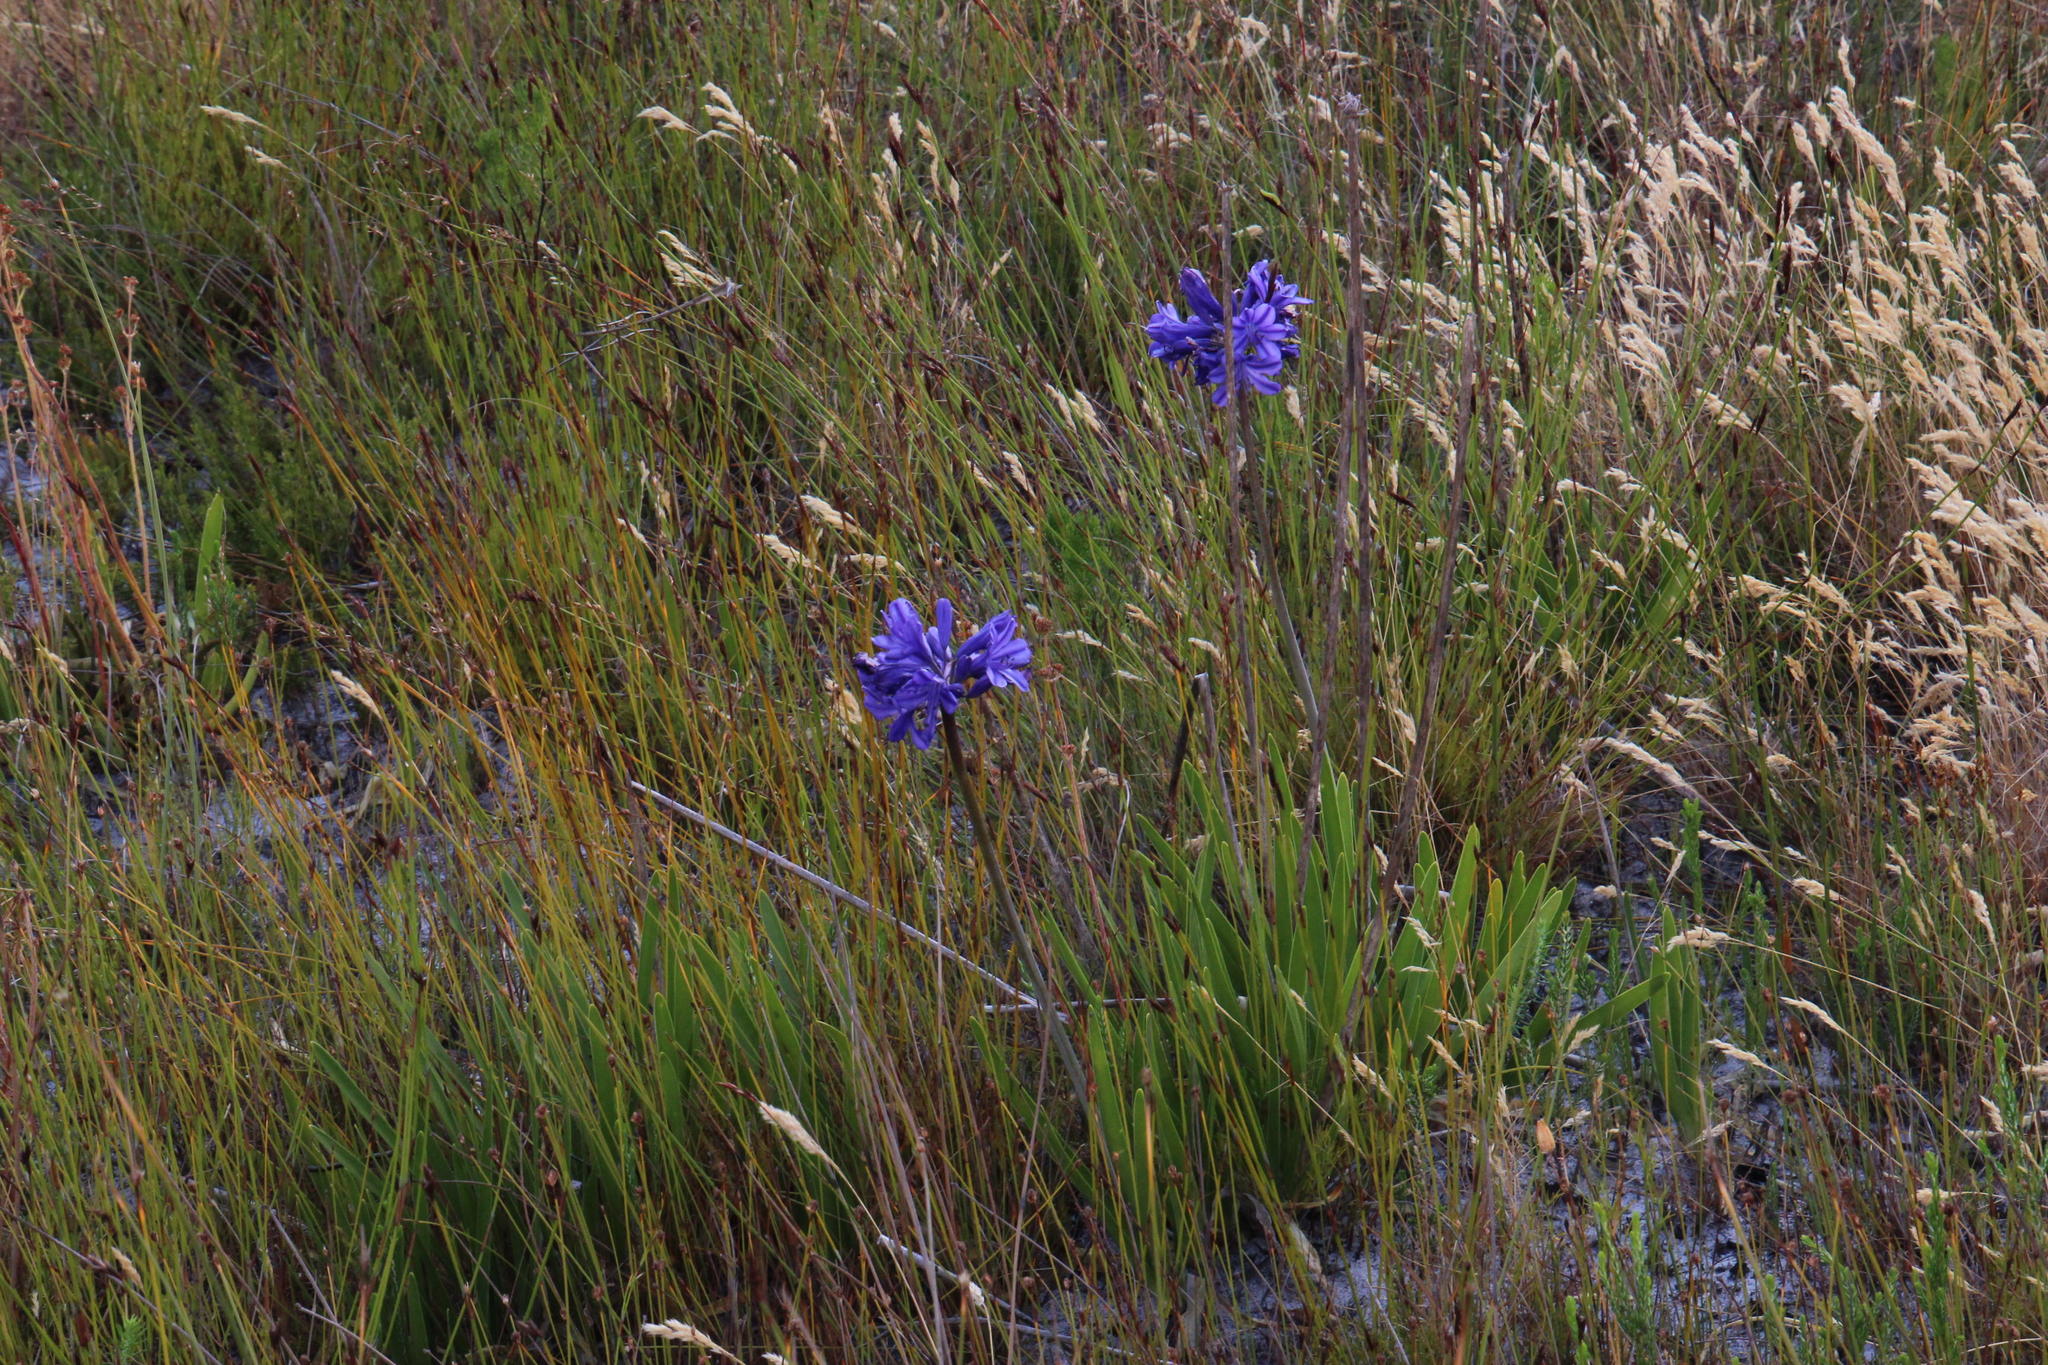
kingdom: Plantae
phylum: Tracheophyta
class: Liliopsida
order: Asparagales
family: Amaryllidaceae
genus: Agapanthus
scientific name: Agapanthus africanus
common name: Lily-of-the-nile
